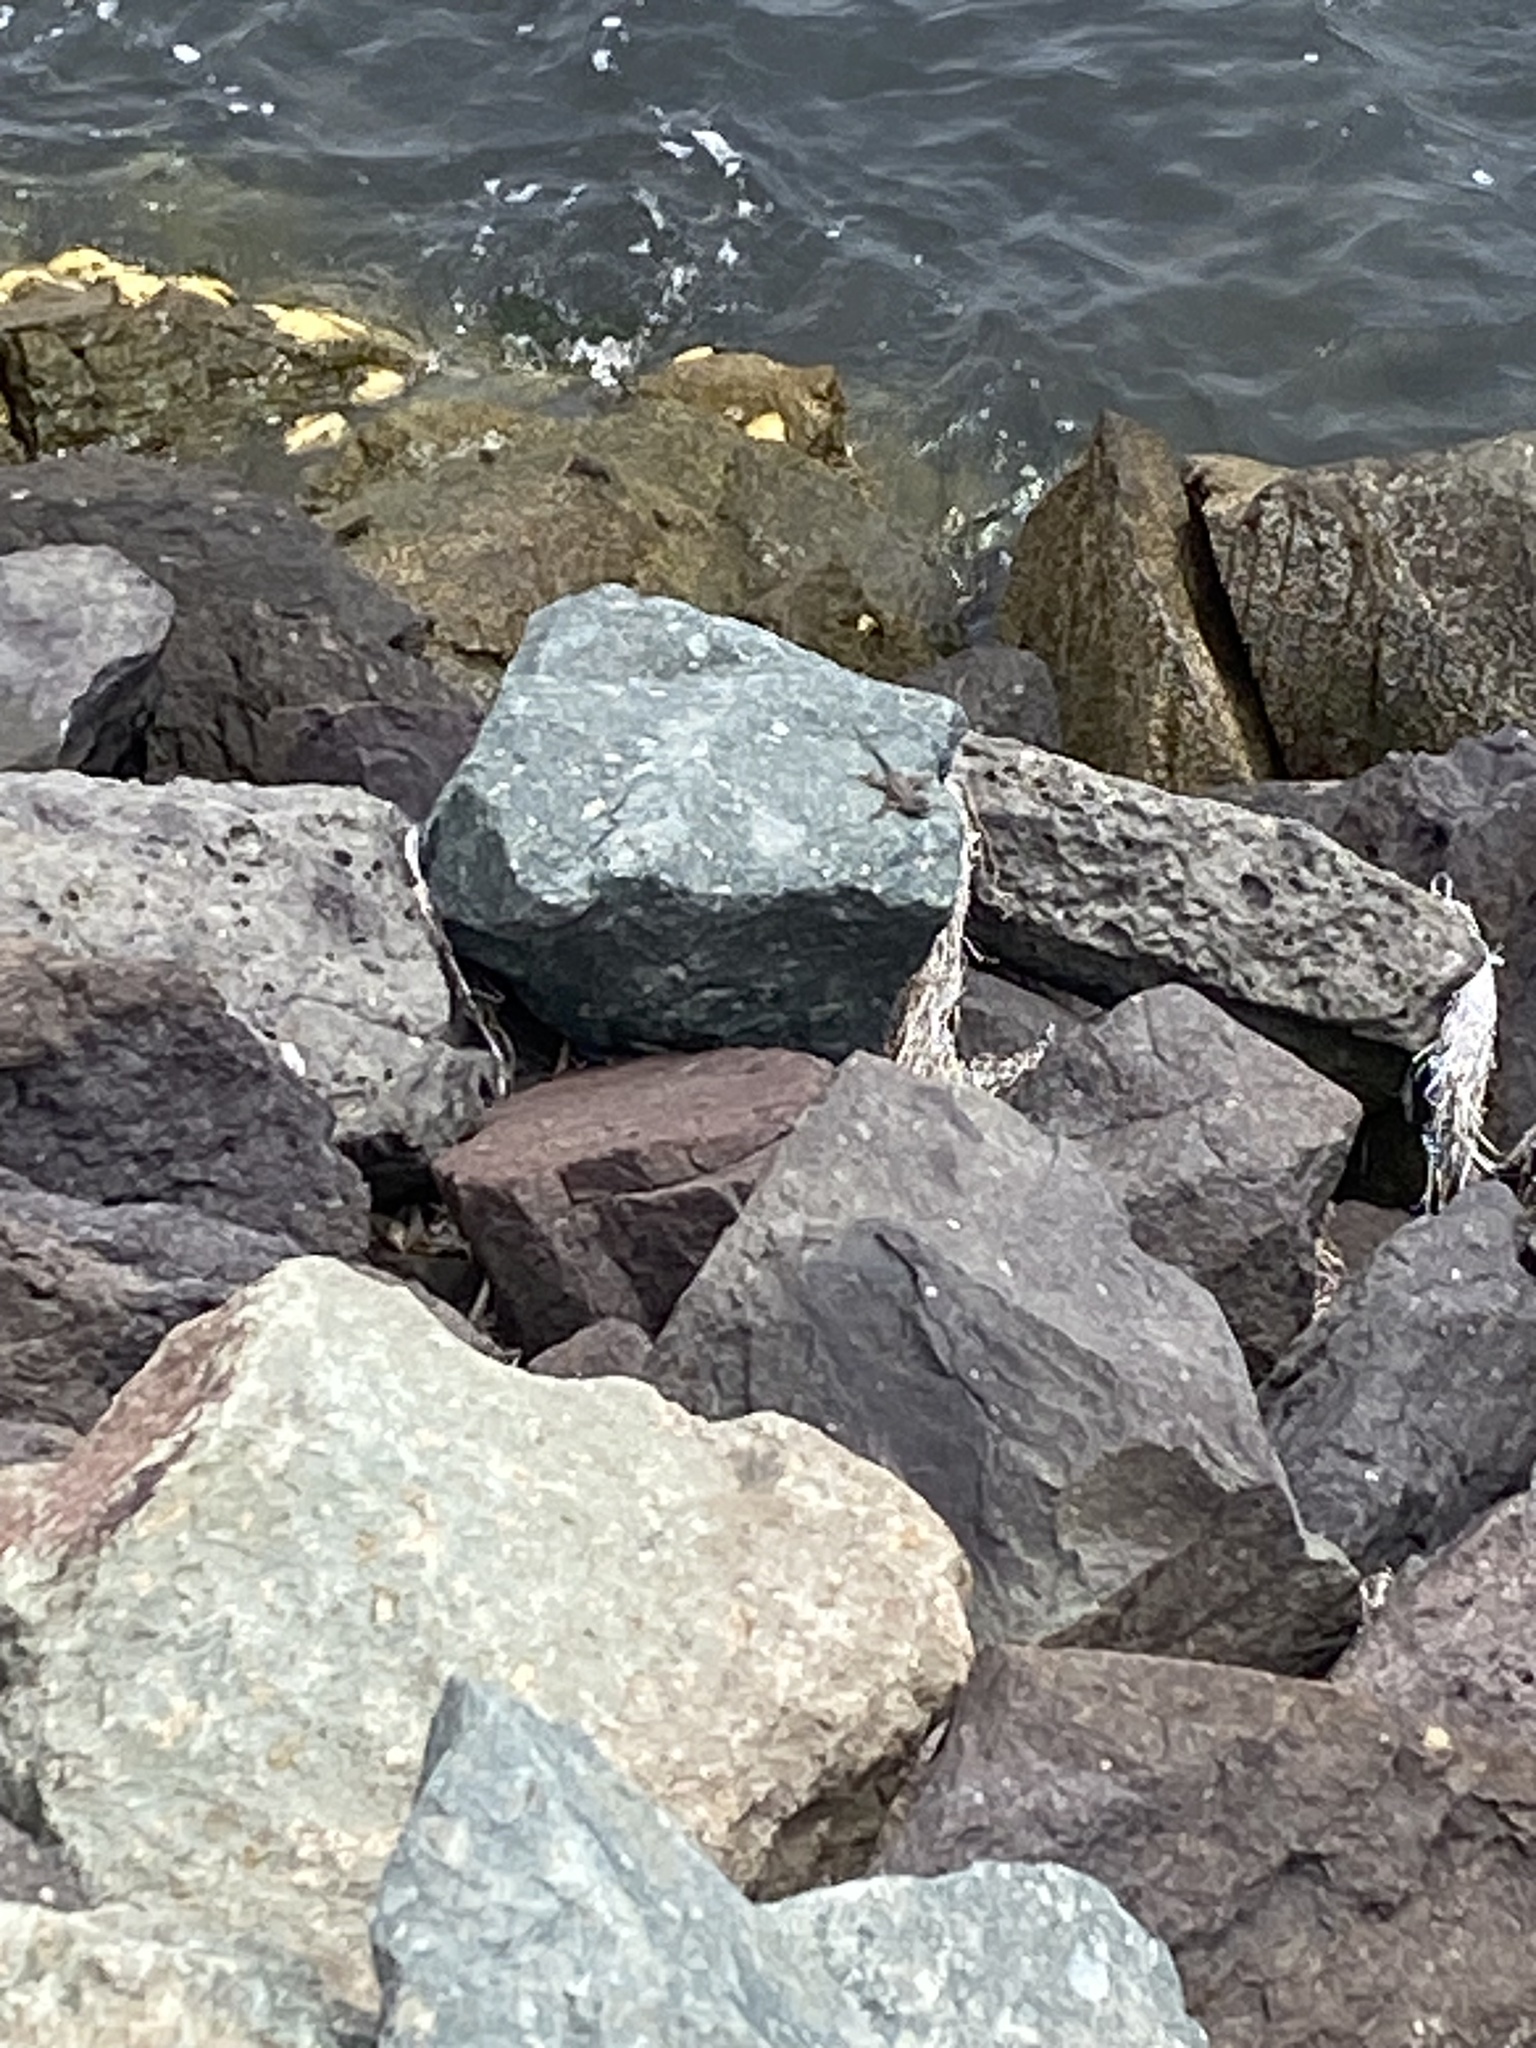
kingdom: Animalia
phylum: Chordata
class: Squamata
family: Phrynosomatidae
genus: Sceloporus
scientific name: Sceloporus occidentalis
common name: Western fence lizard
